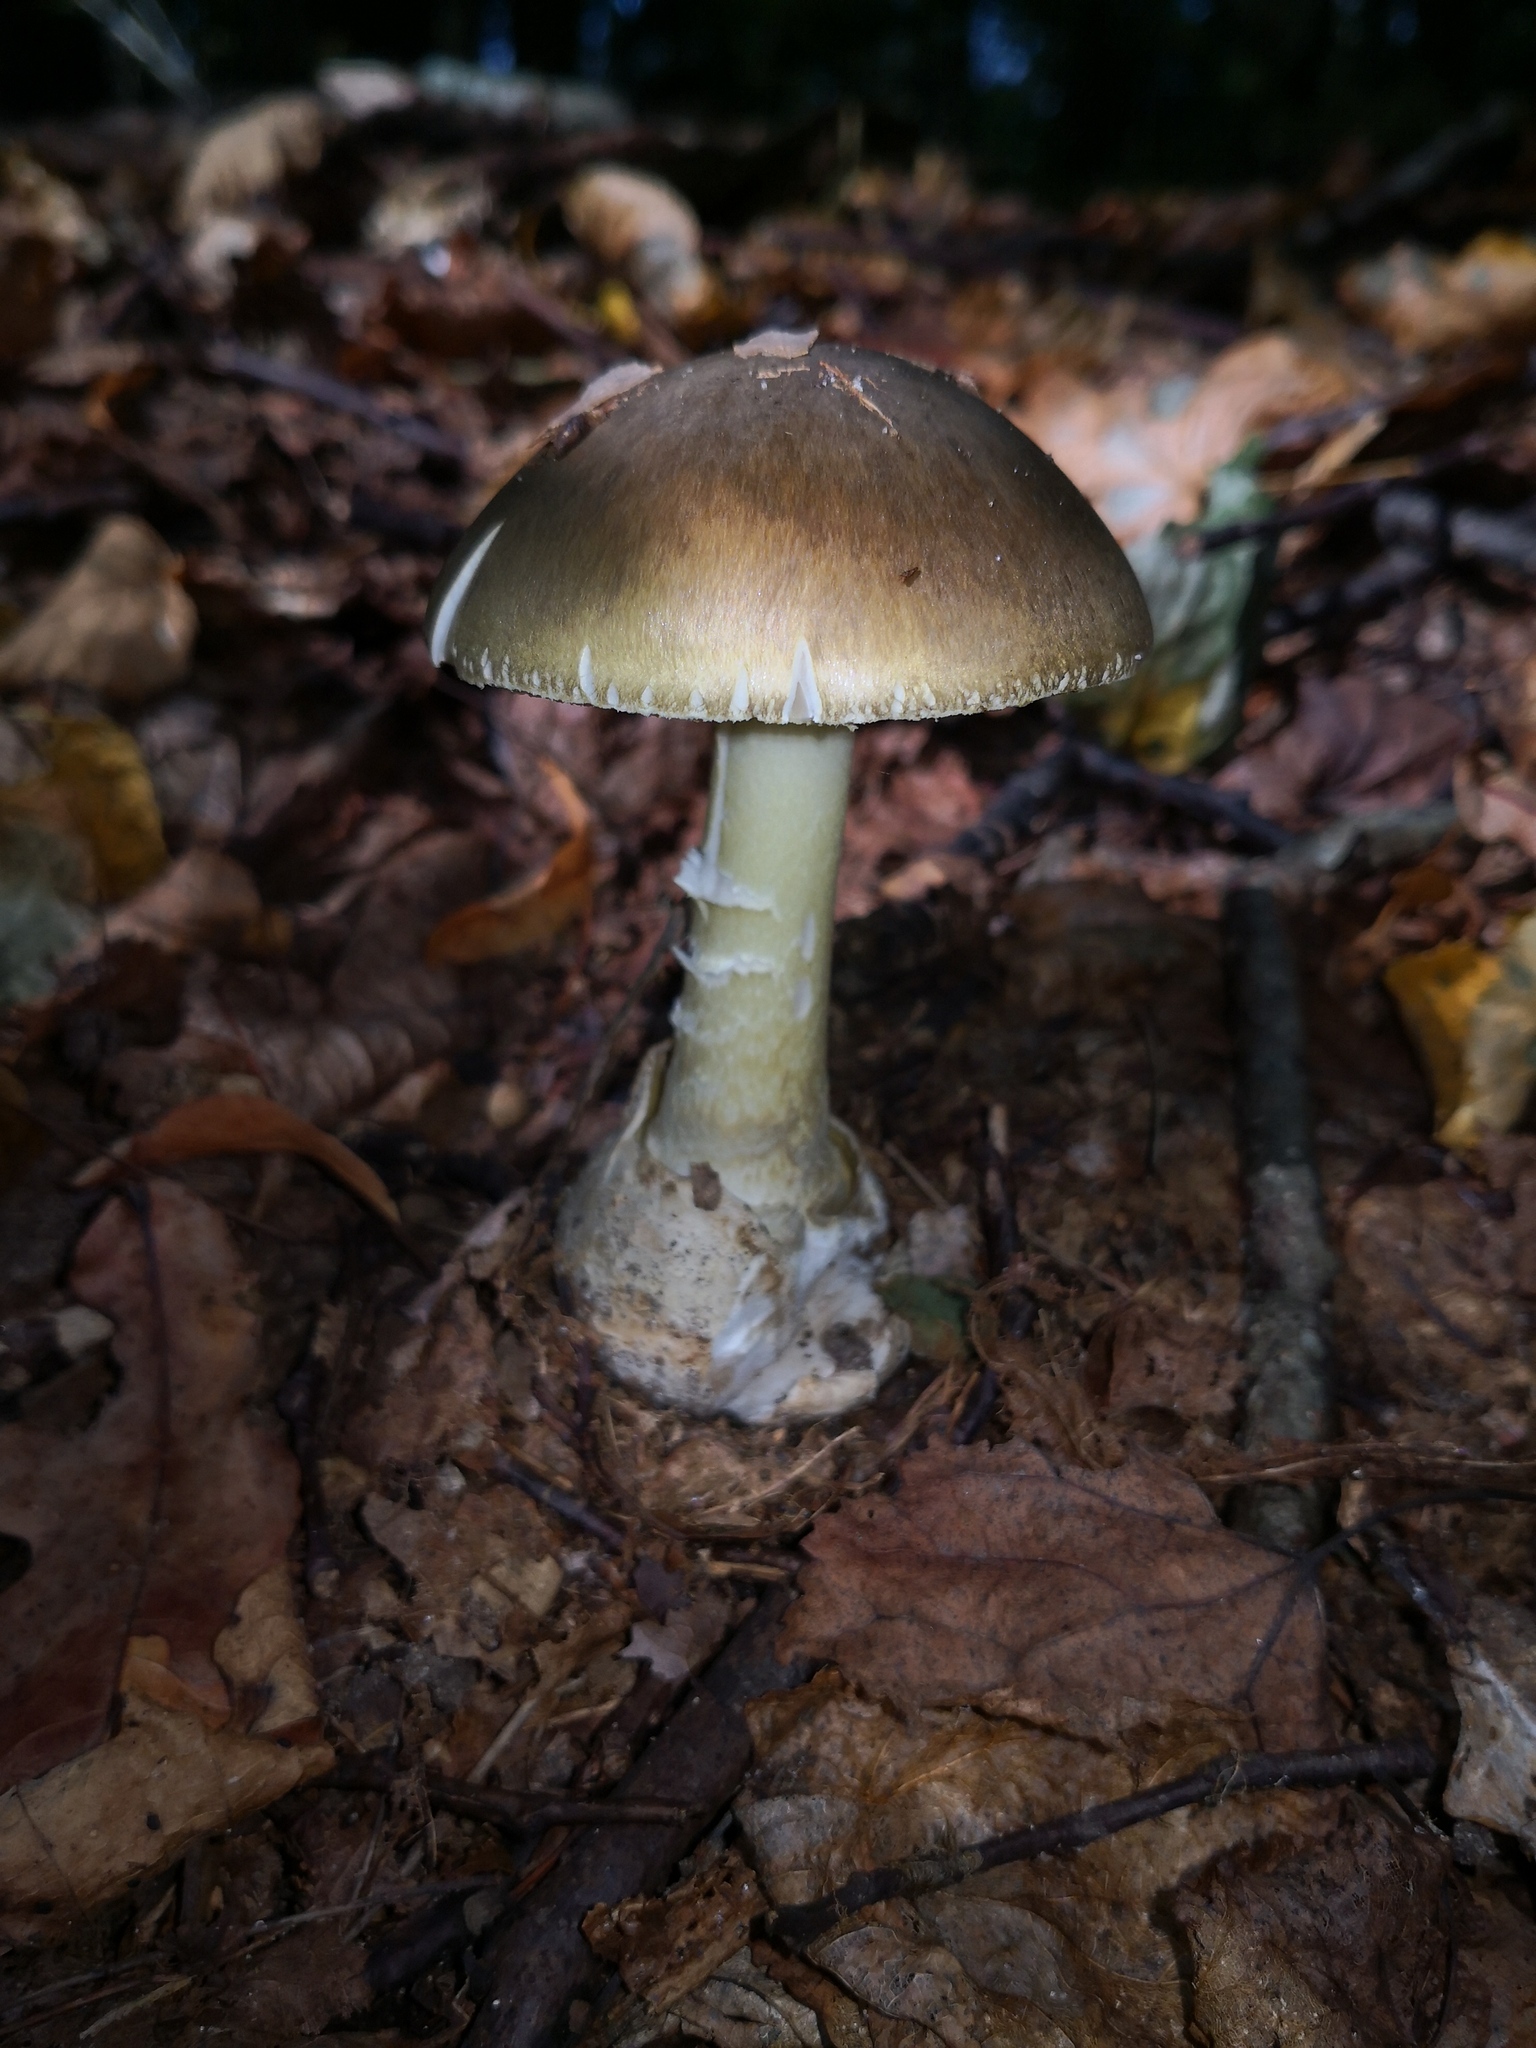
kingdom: Fungi
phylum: Basidiomycota
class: Agaricomycetes
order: Agaricales
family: Amanitaceae
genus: Amanita
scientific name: Amanita phalloides
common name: Death cap
